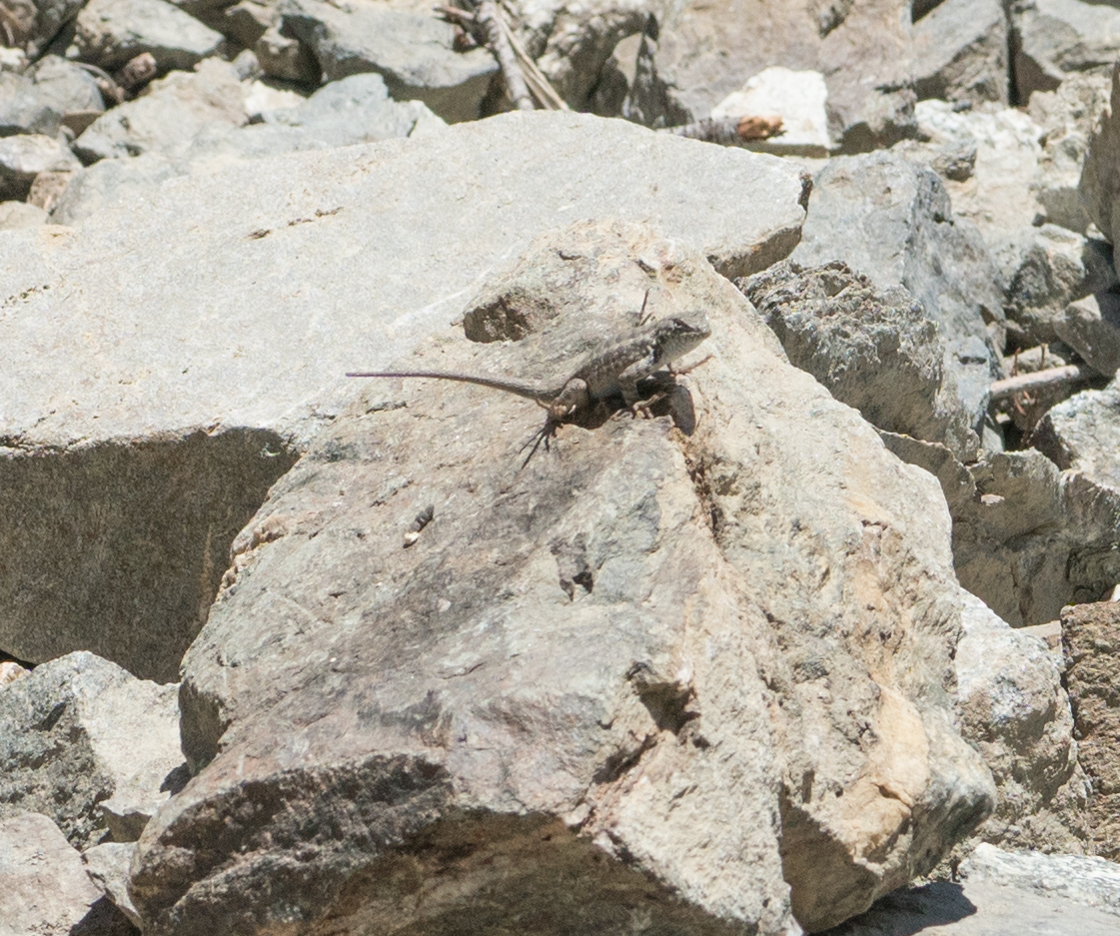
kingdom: Animalia
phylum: Chordata
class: Squamata
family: Phrynosomatidae
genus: Sceloporus
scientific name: Sceloporus graciosus
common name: Sagebrush lizard
